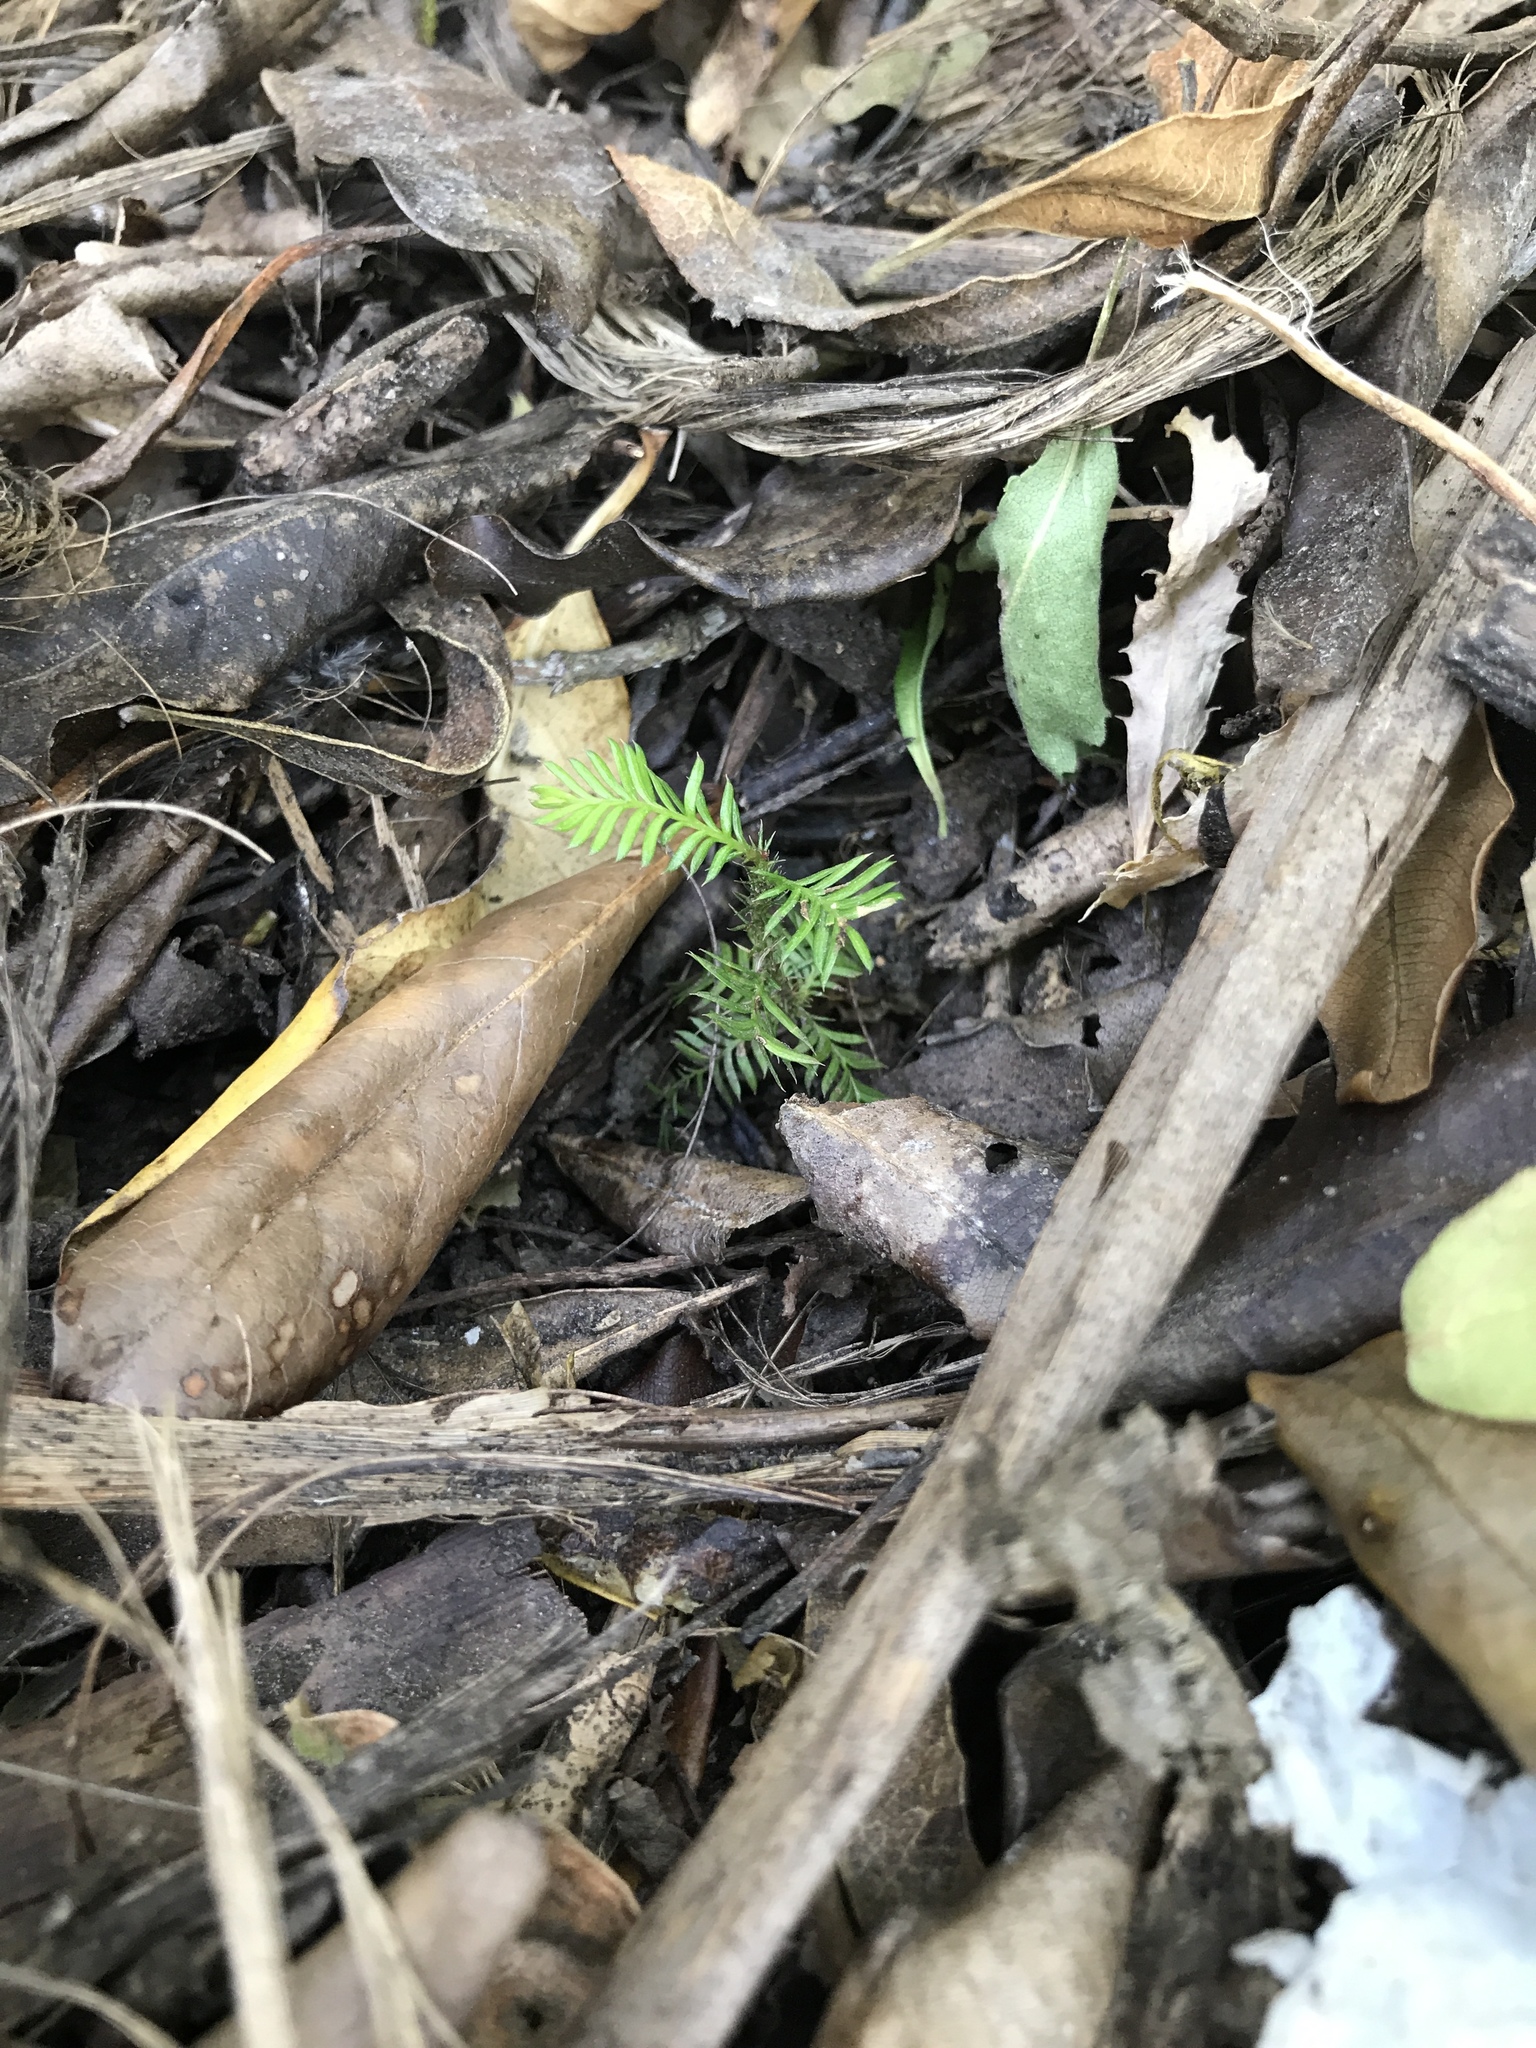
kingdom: Plantae
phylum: Tracheophyta
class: Pinopsida
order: Pinales
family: Podocarpaceae
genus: Dacrycarpus
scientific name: Dacrycarpus dacrydioides
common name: White pine
